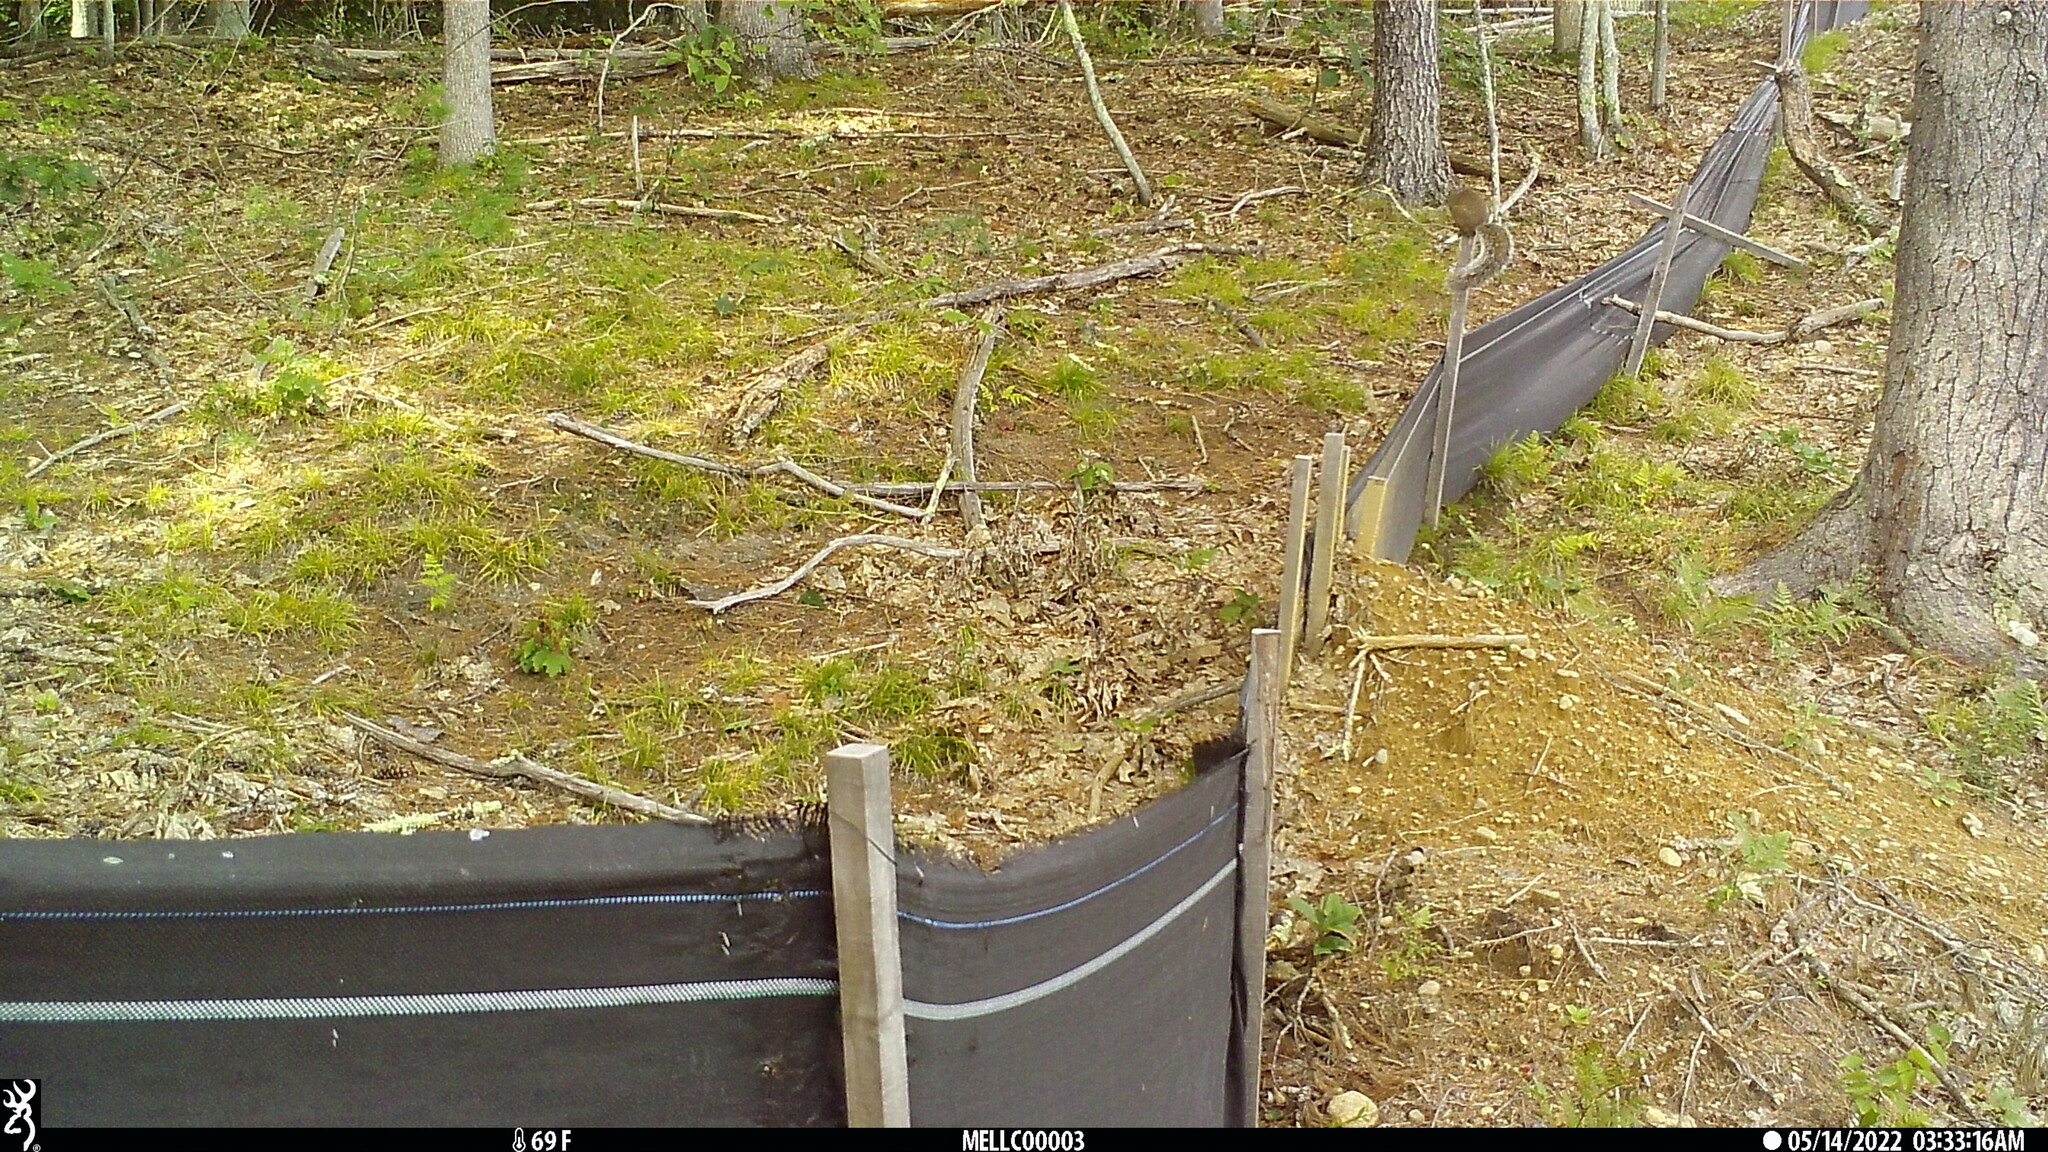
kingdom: Animalia
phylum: Chordata
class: Mammalia
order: Rodentia
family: Sciuridae
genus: Sciurus
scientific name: Sciurus carolinensis
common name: Eastern gray squirrel
